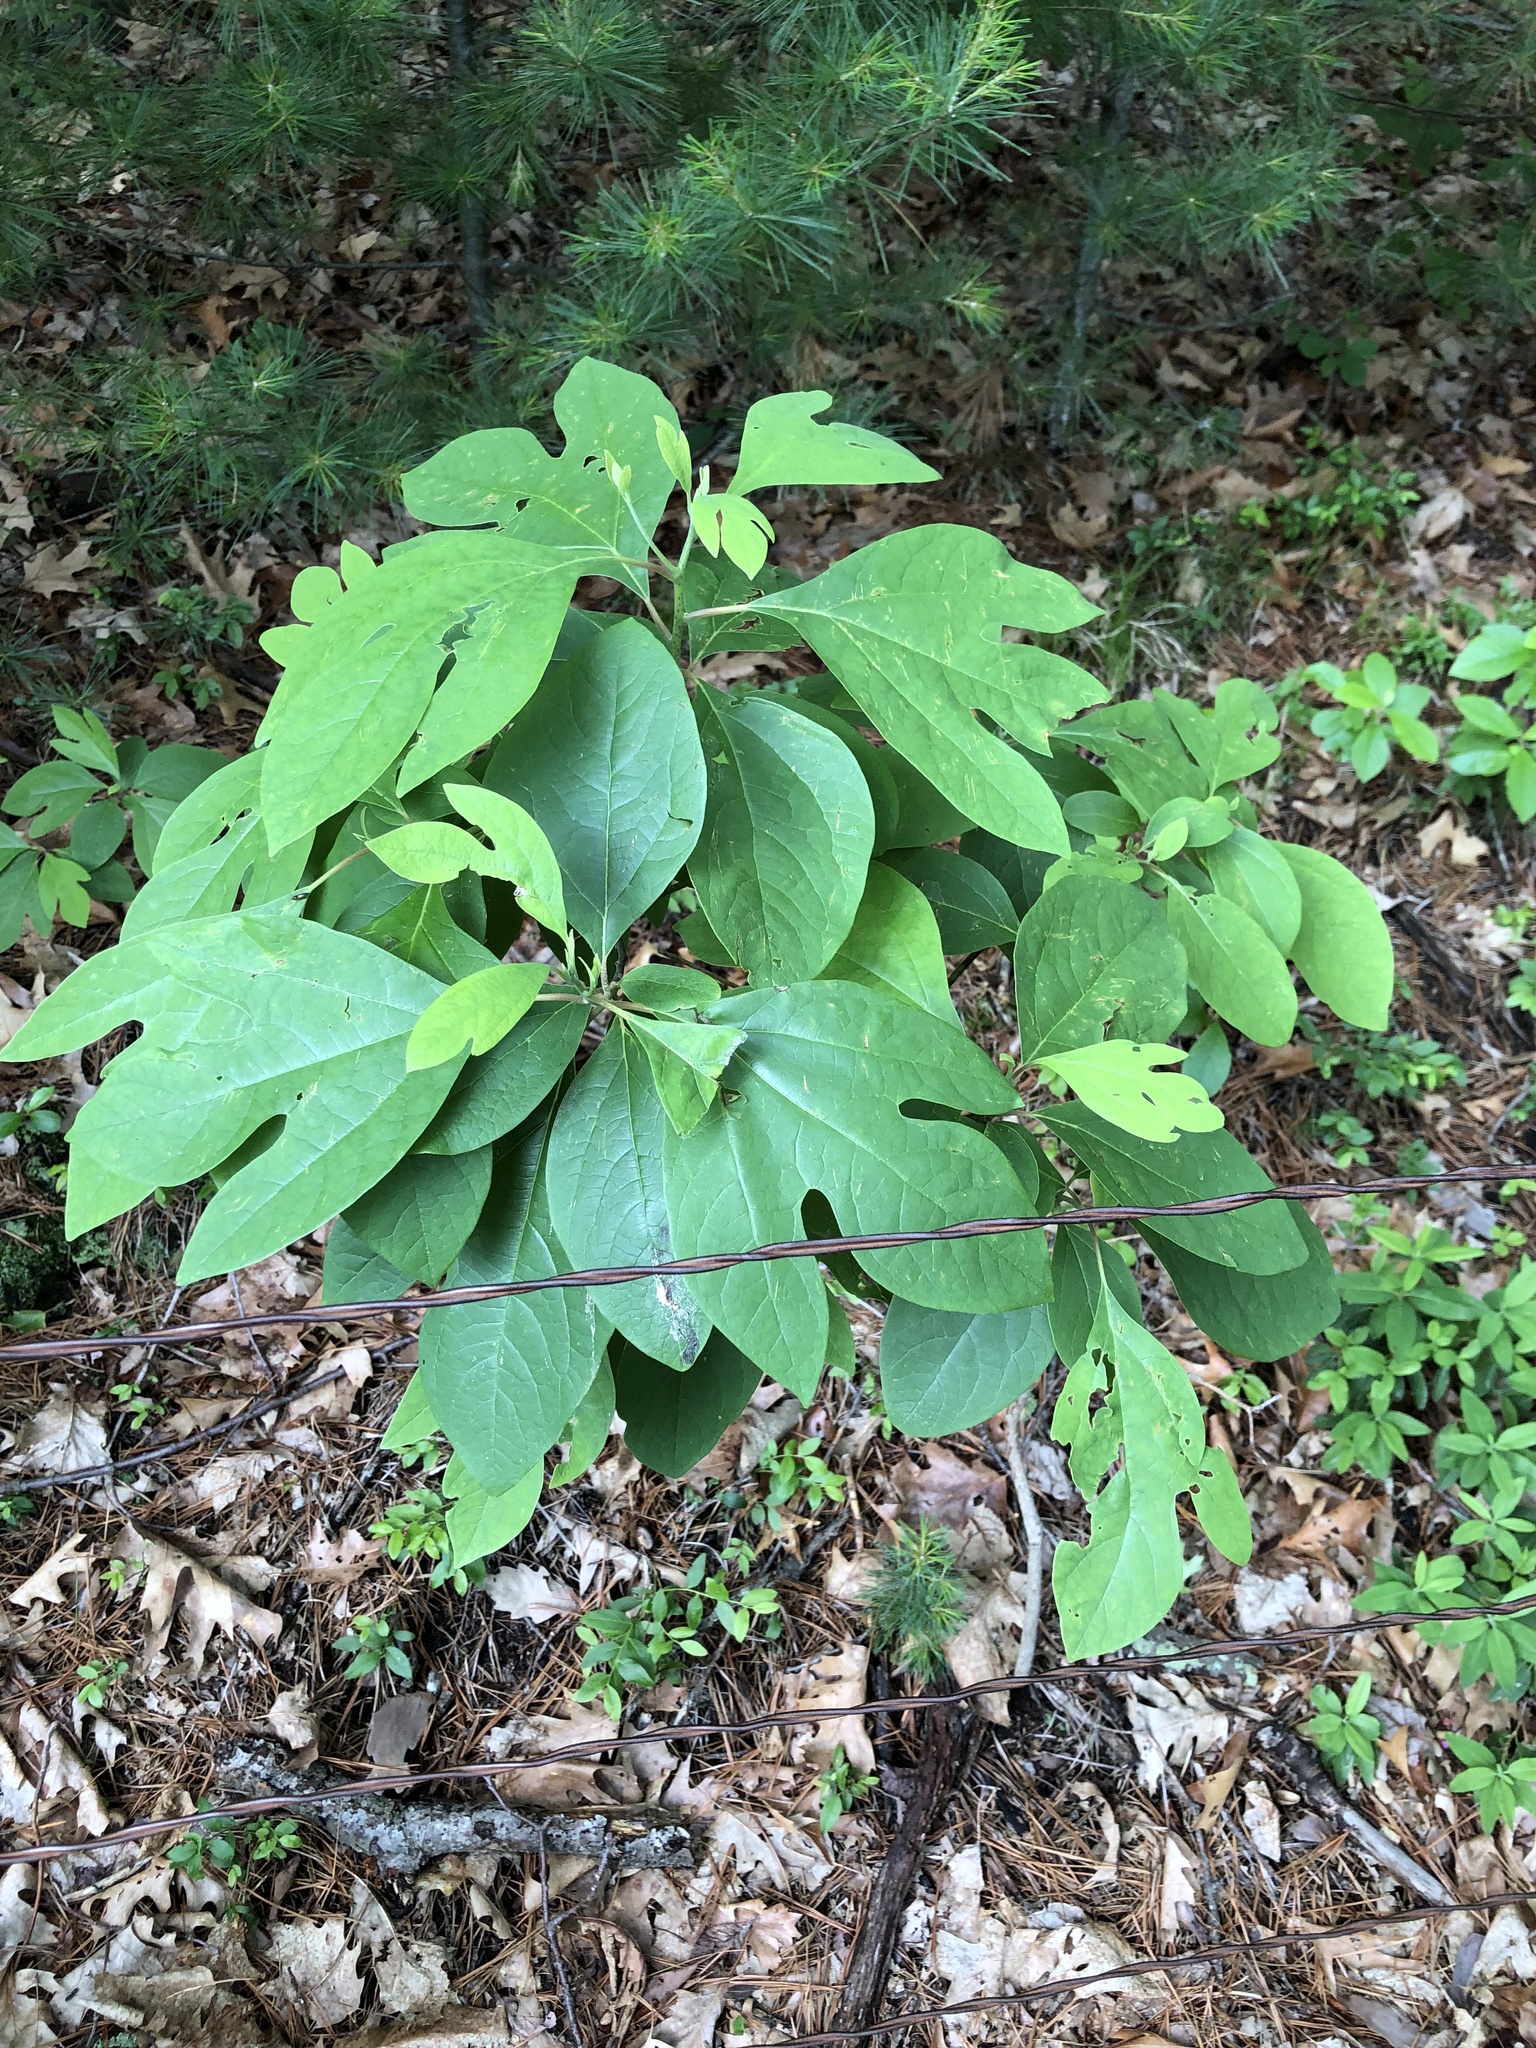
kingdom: Plantae
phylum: Tracheophyta
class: Magnoliopsida
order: Laurales
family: Lauraceae
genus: Sassafras
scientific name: Sassafras albidum
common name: Sassafras
